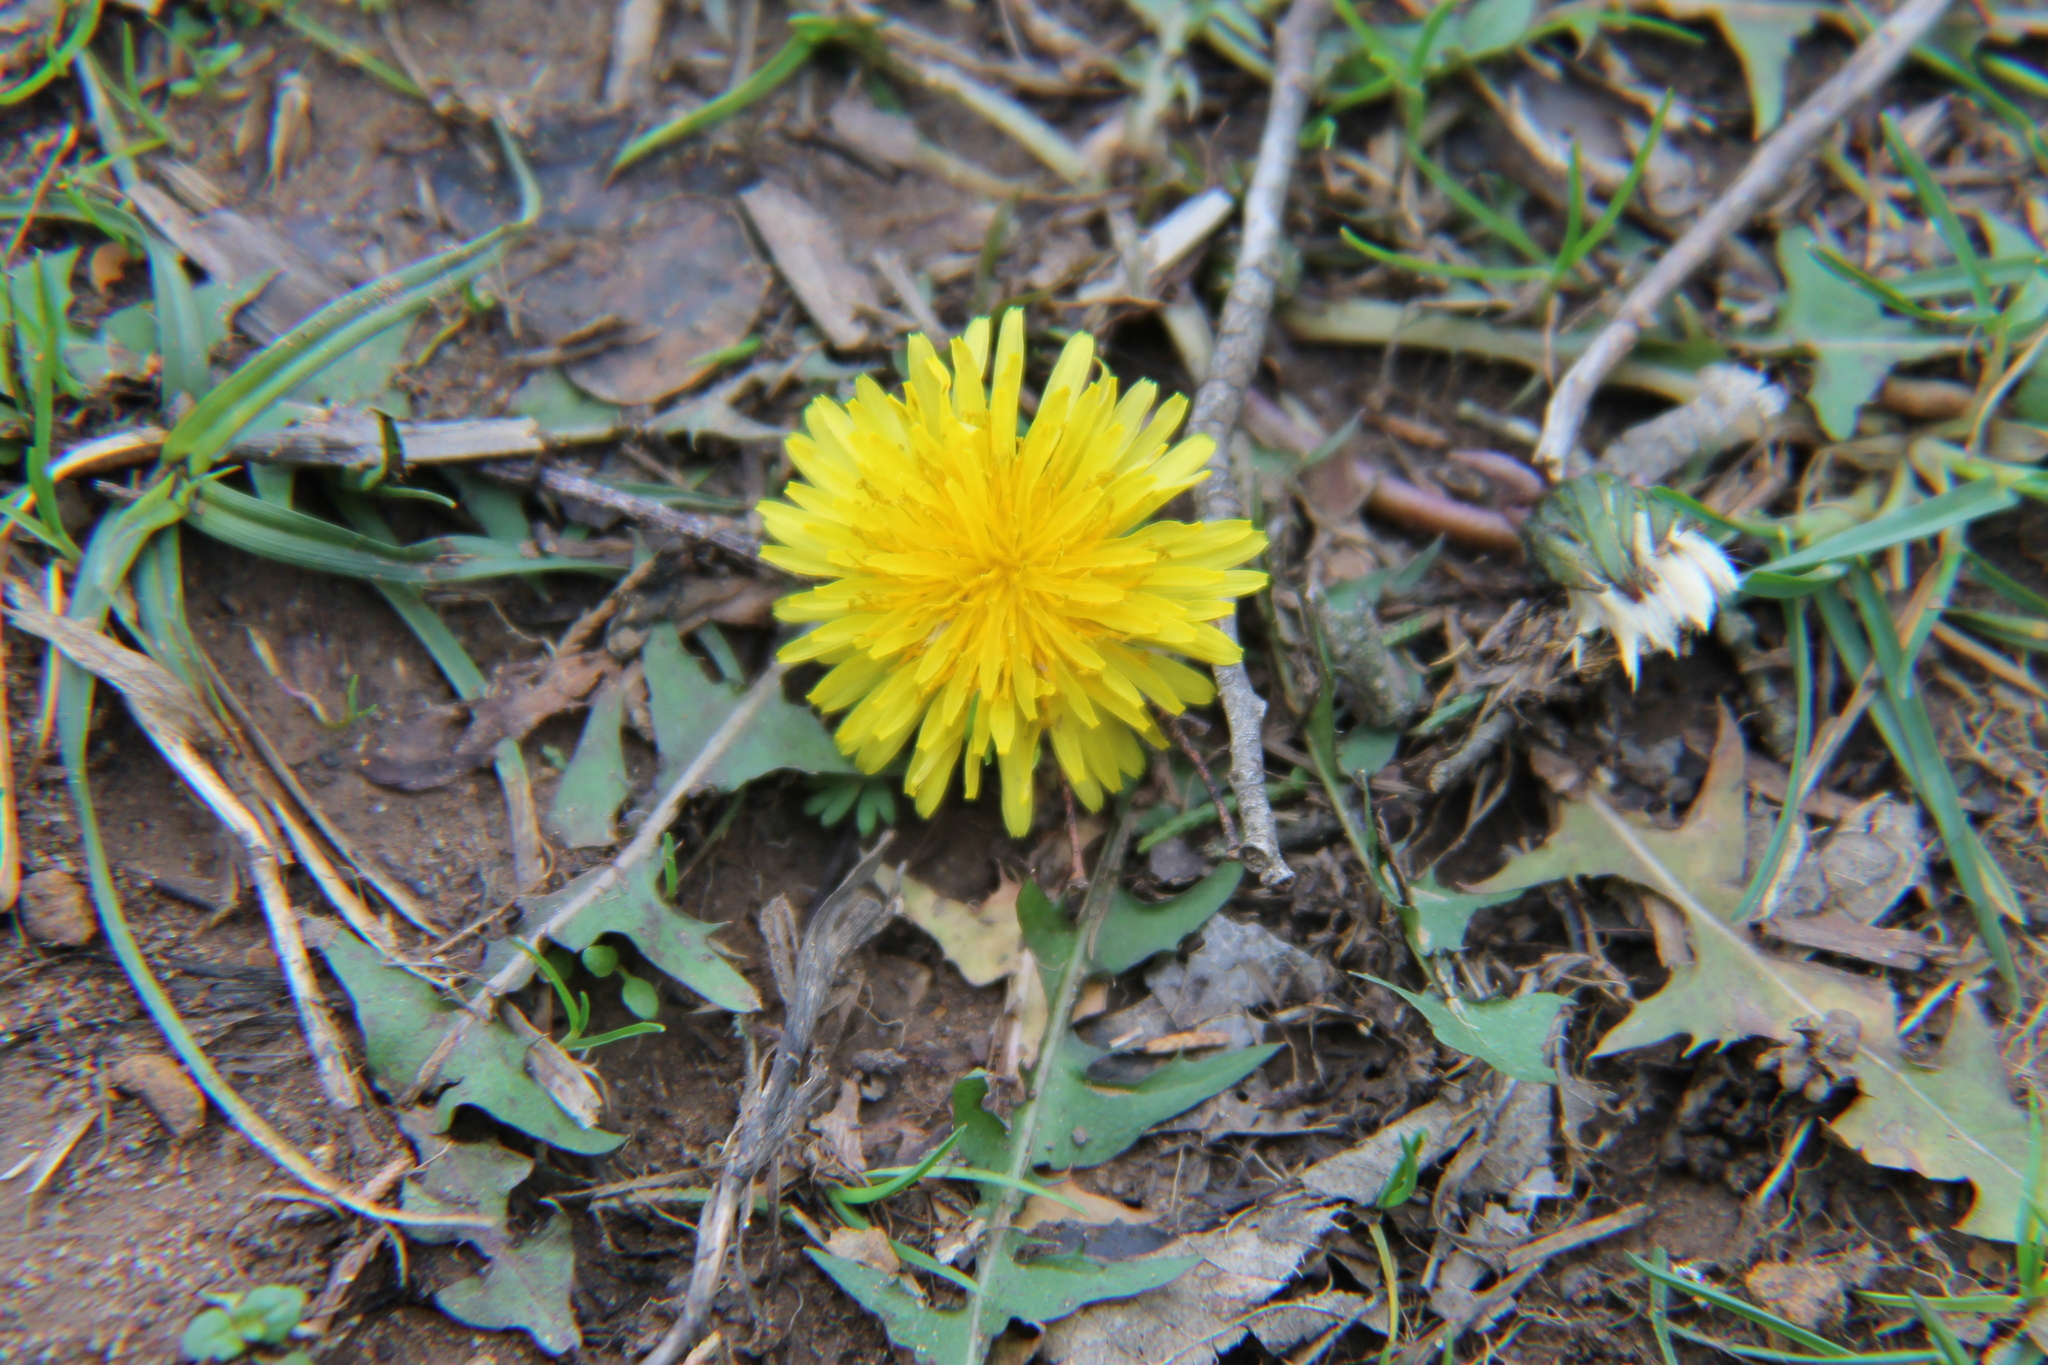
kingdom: Plantae
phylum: Tracheophyta
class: Magnoliopsida
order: Asterales
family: Asteraceae
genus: Taraxacum
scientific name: Taraxacum officinale
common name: Common dandelion
